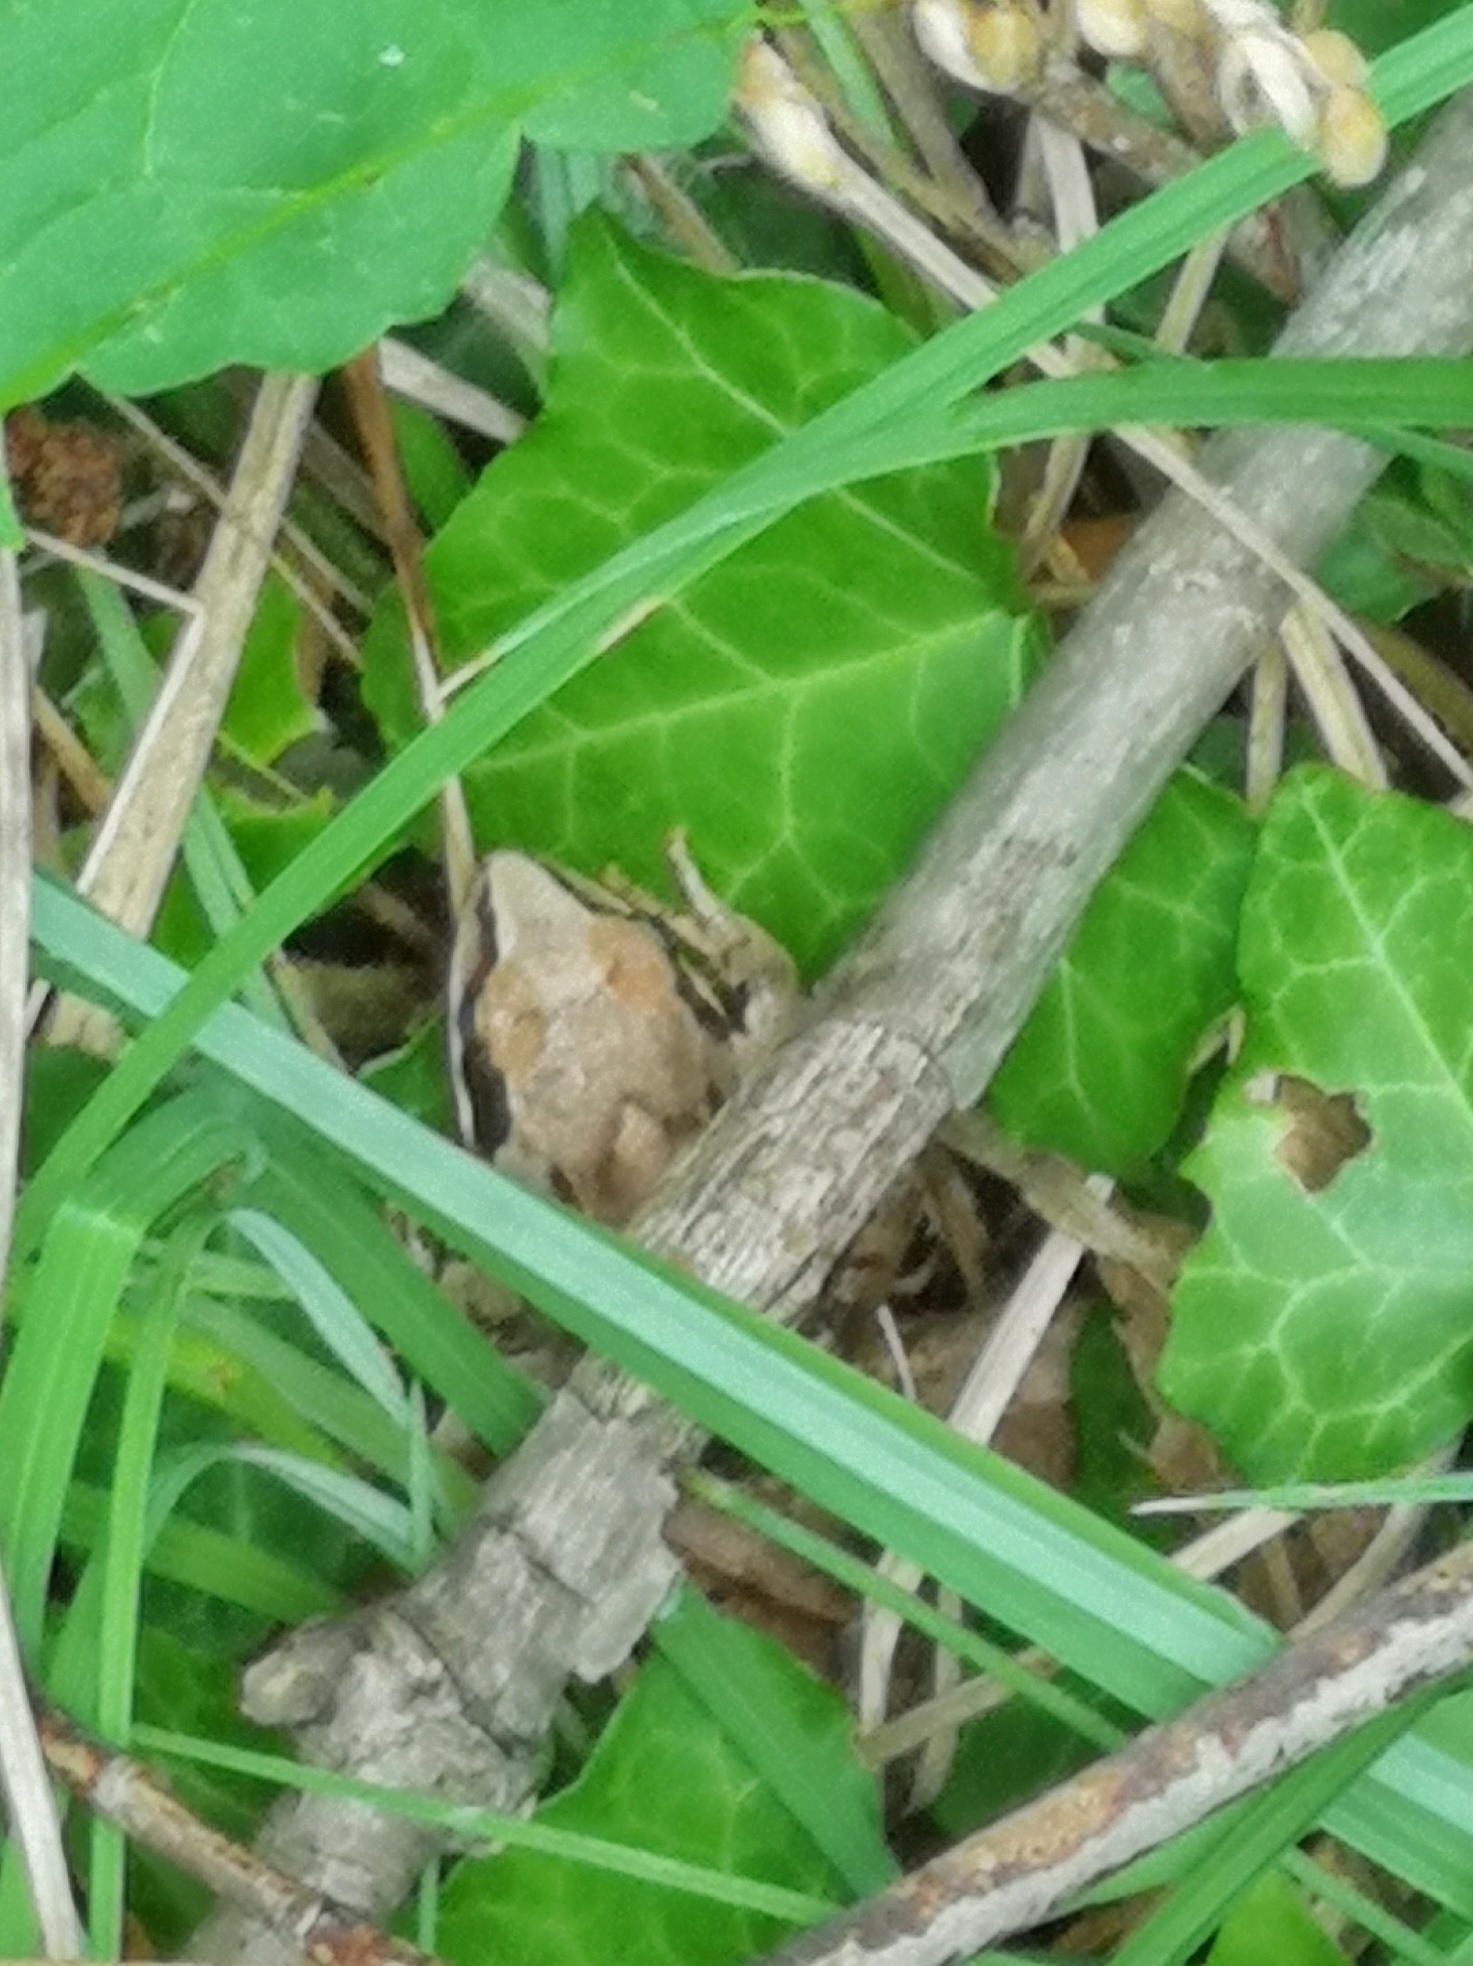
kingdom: Animalia
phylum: Chordata
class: Amphibia
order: Anura
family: Ranidae
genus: Rana
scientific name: Rana temporaria
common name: Common frog
